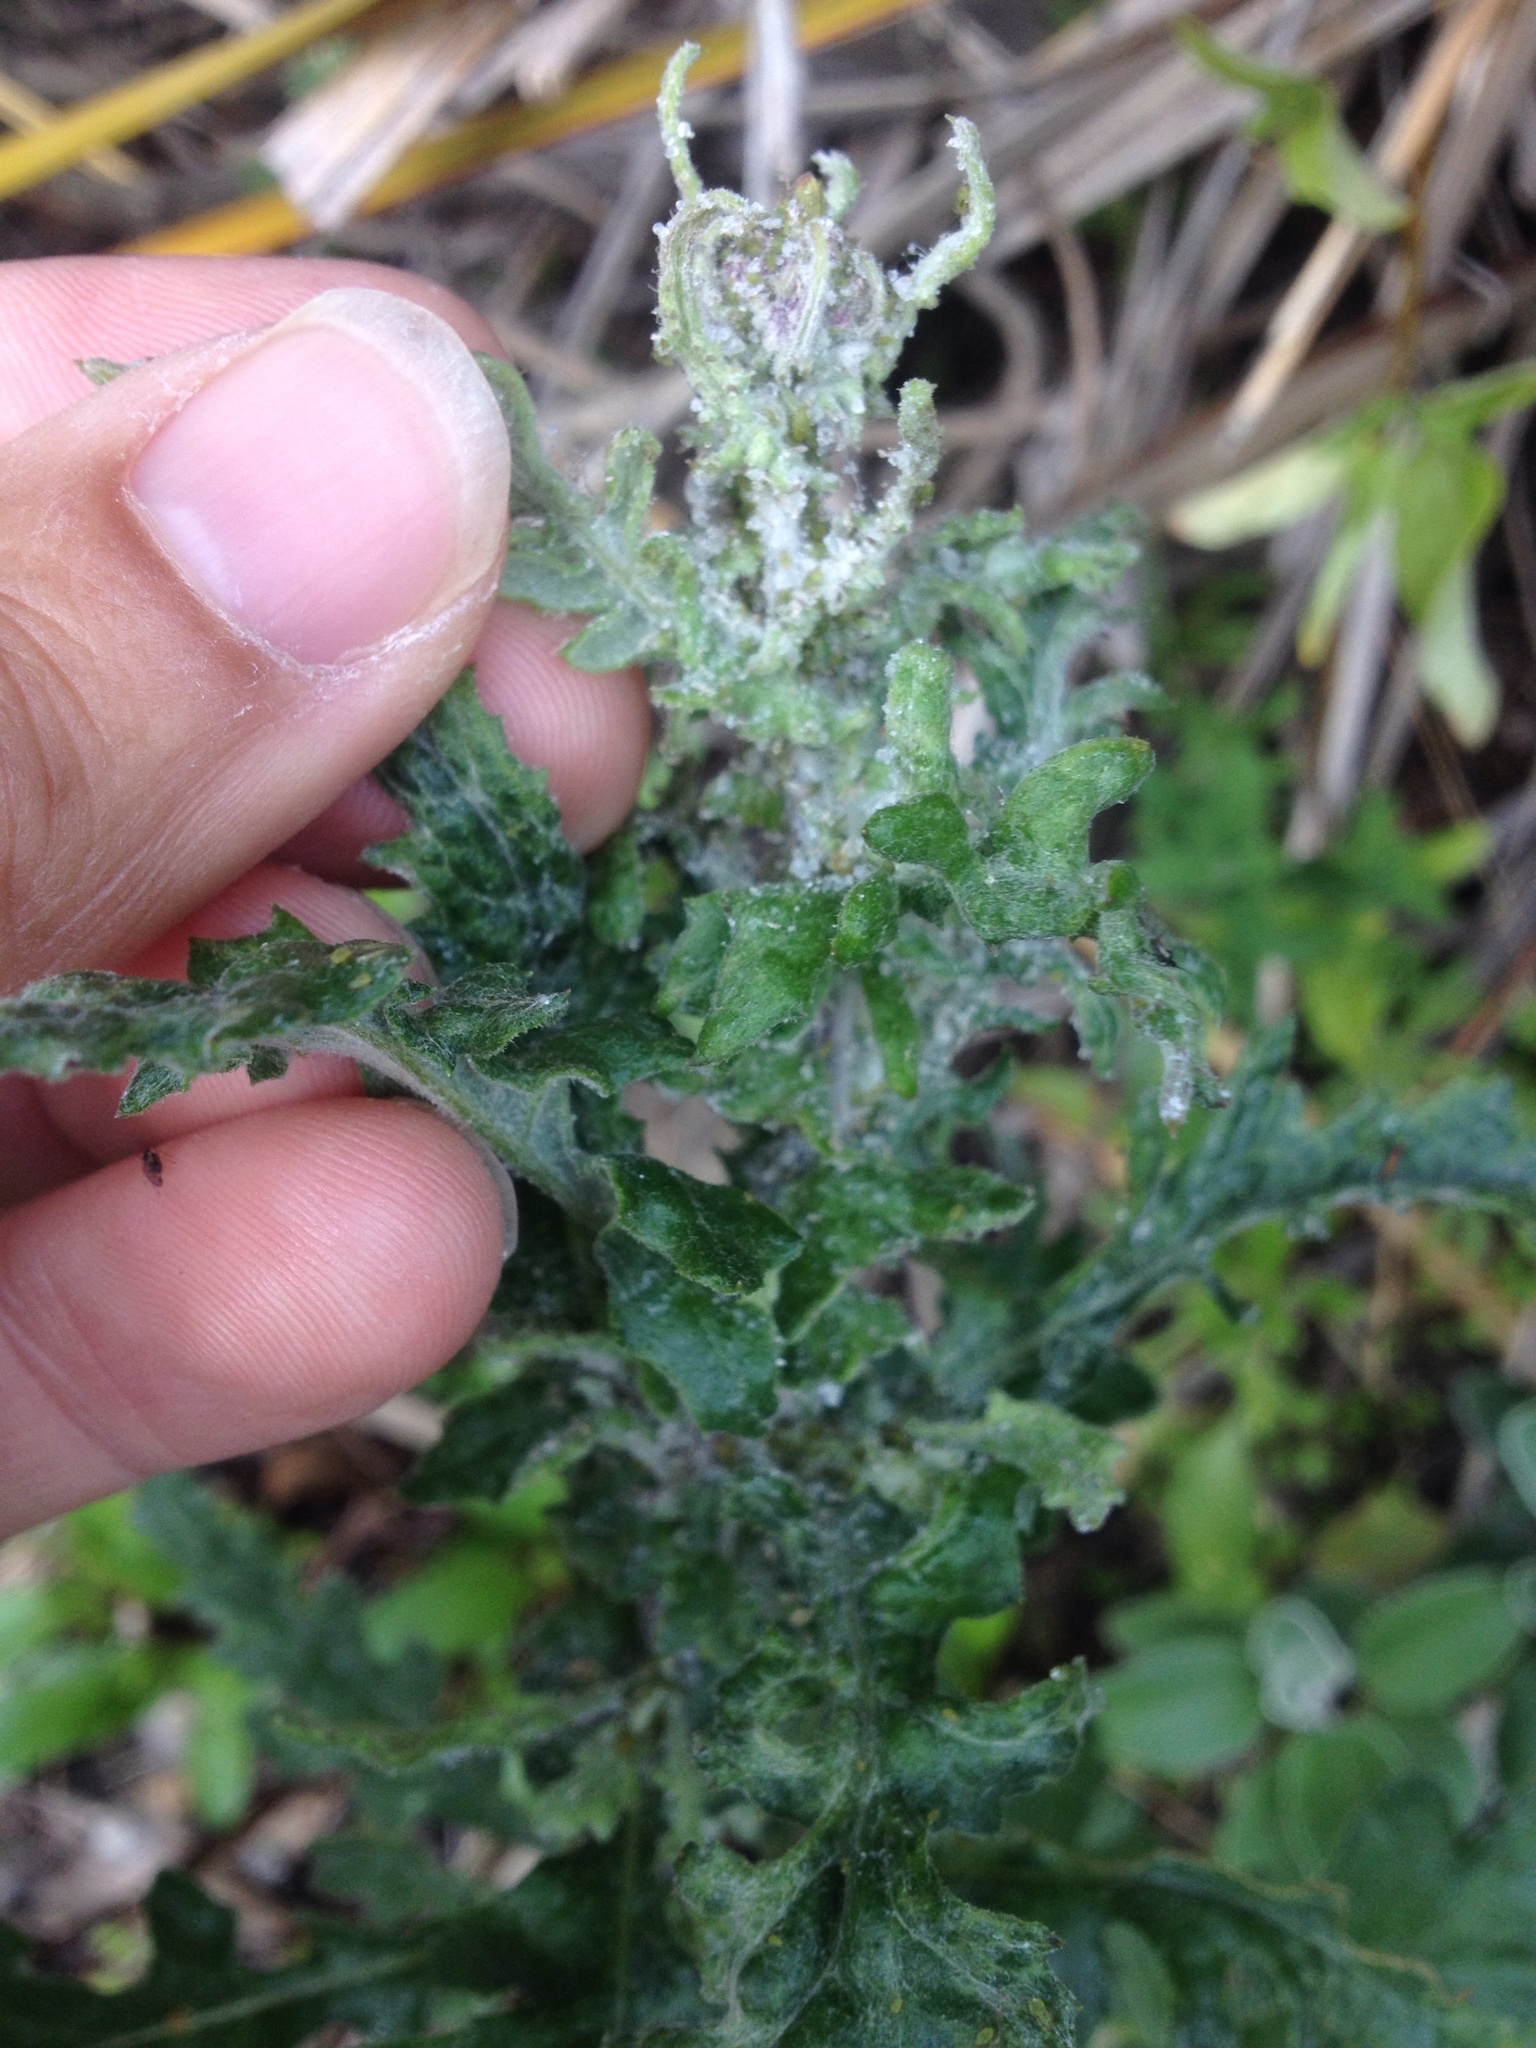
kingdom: Plantae
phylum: Tracheophyta
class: Magnoliopsida
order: Asterales
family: Asteraceae
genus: Senecio
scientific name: Senecio glomeratus
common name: Cutleaf burnweed
